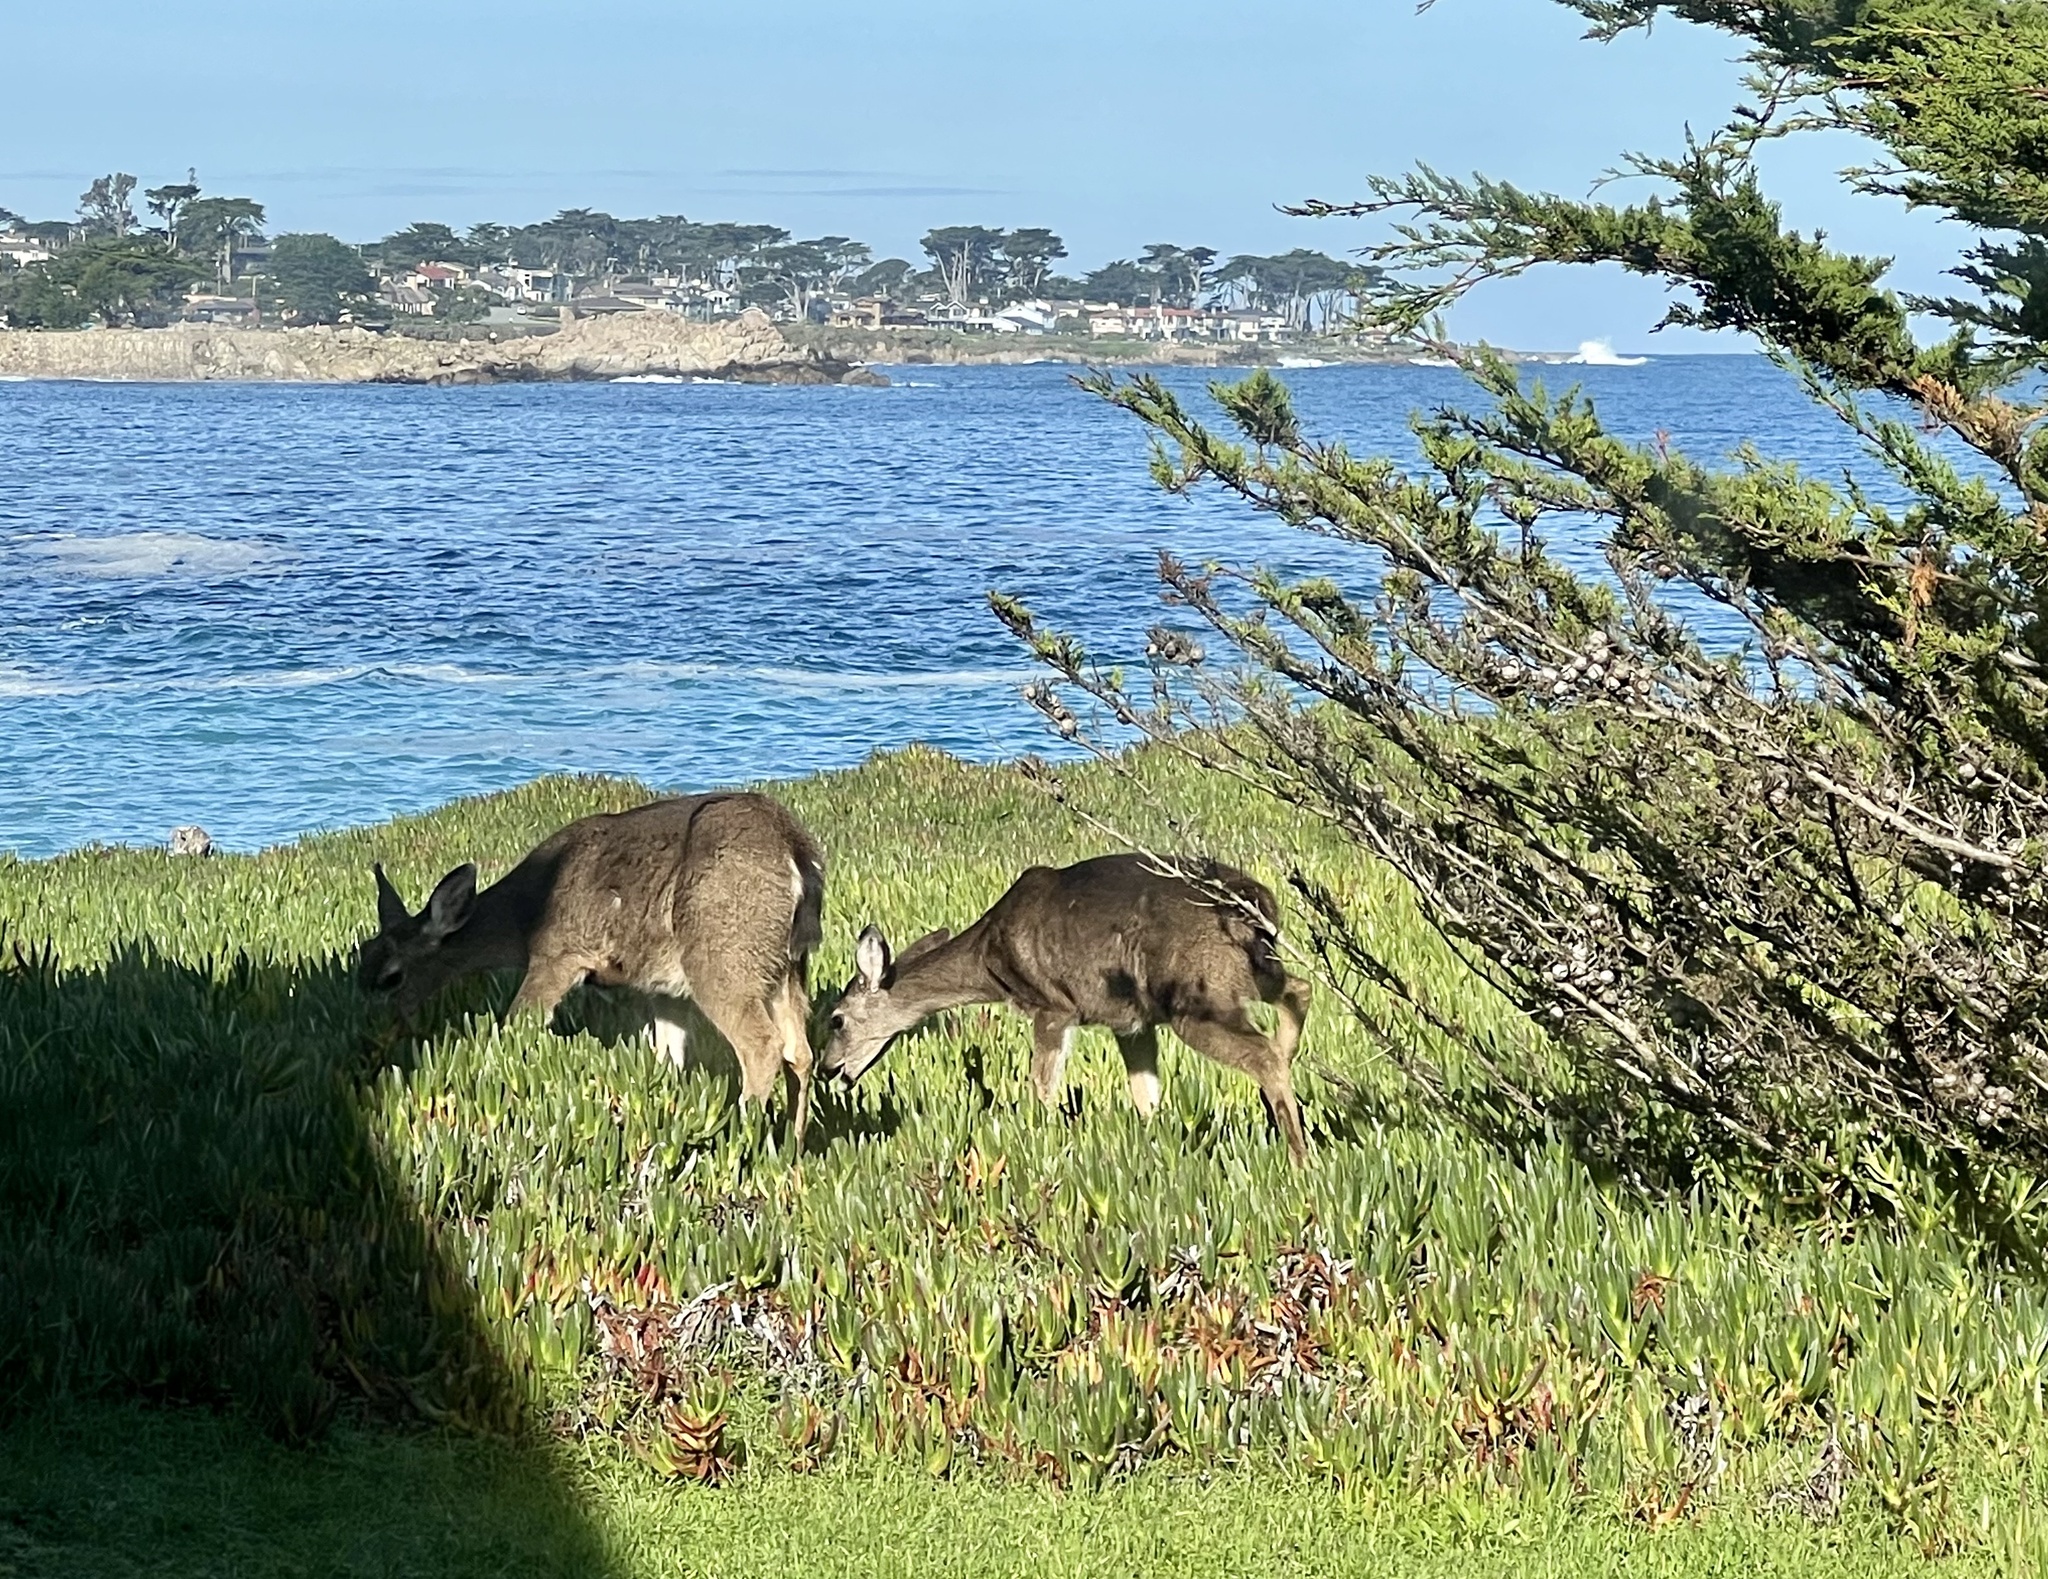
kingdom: Animalia
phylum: Chordata
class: Mammalia
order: Artiodactyla
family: Cervidae
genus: Odocoileus
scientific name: Odocoileus hemionus
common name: Mule deer
